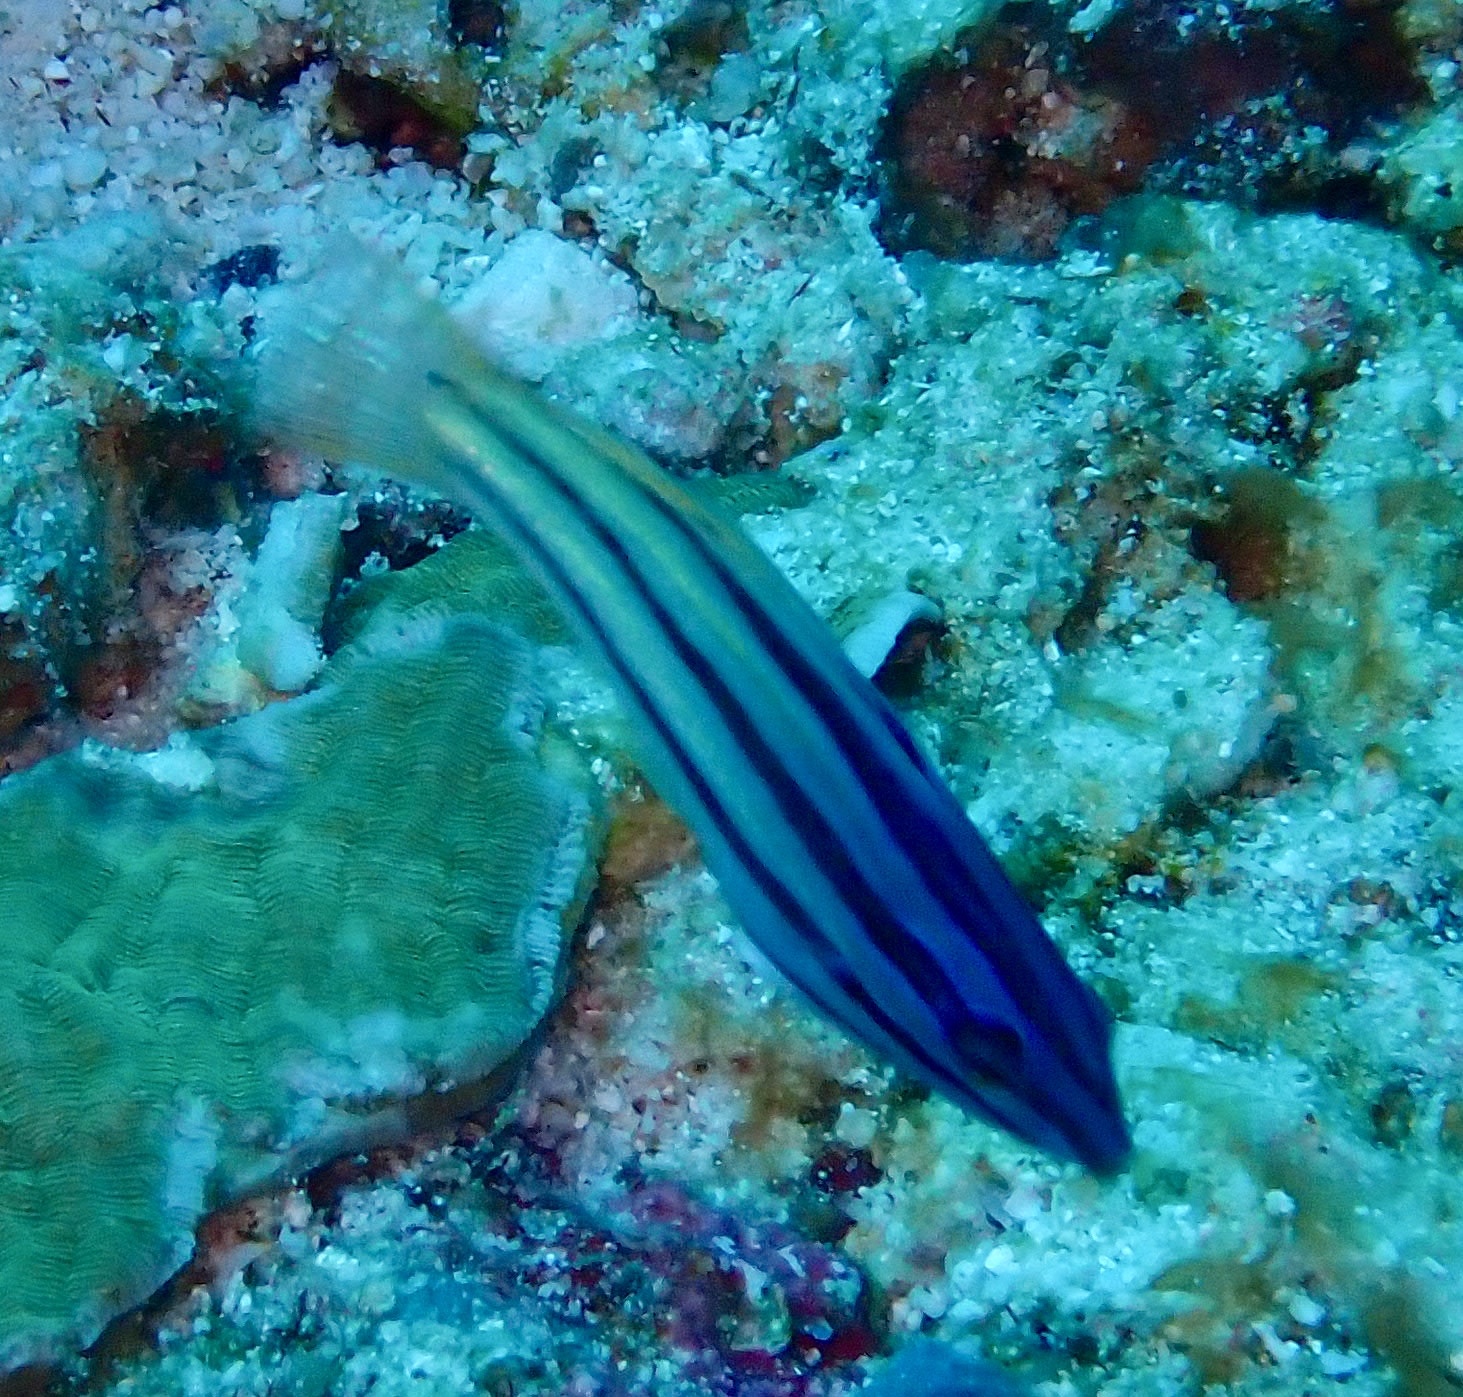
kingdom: Animalia
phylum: Chordata
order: Perciformes
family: Labridae
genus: Halichoeres
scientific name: Halichoeres prosopeion
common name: Half-grey wrasse
